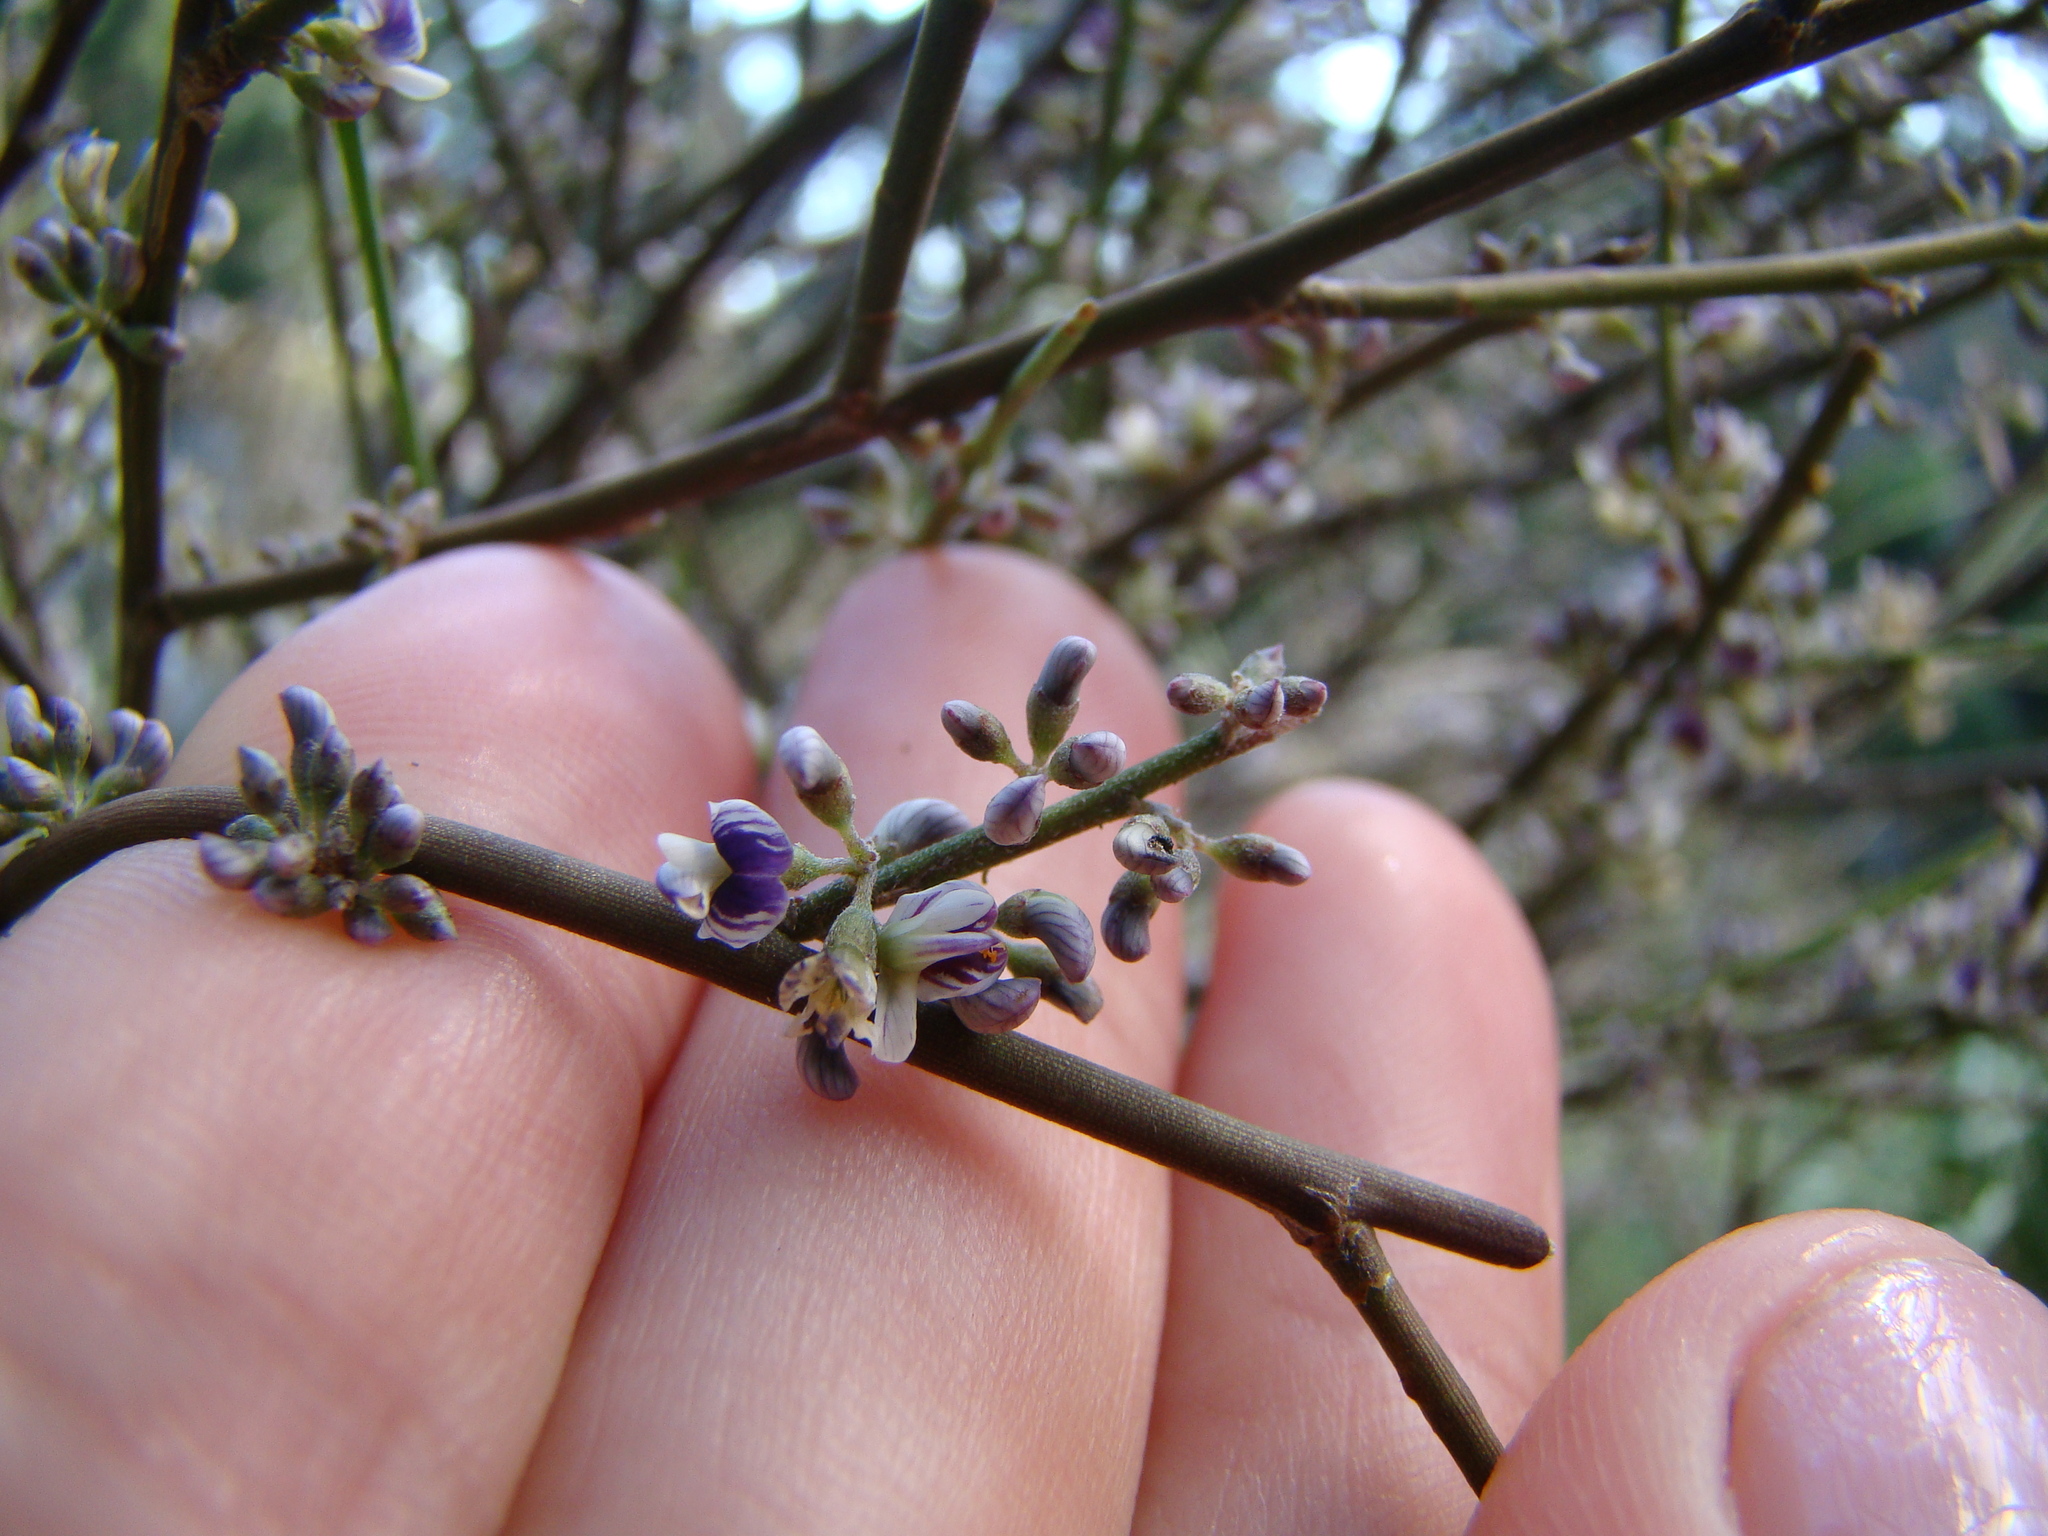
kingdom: Plantae
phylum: Tracheophyta
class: Magnoliopsida
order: Fabales
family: Fabaceae
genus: Carmichaelia
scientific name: Carmichaelia australis
